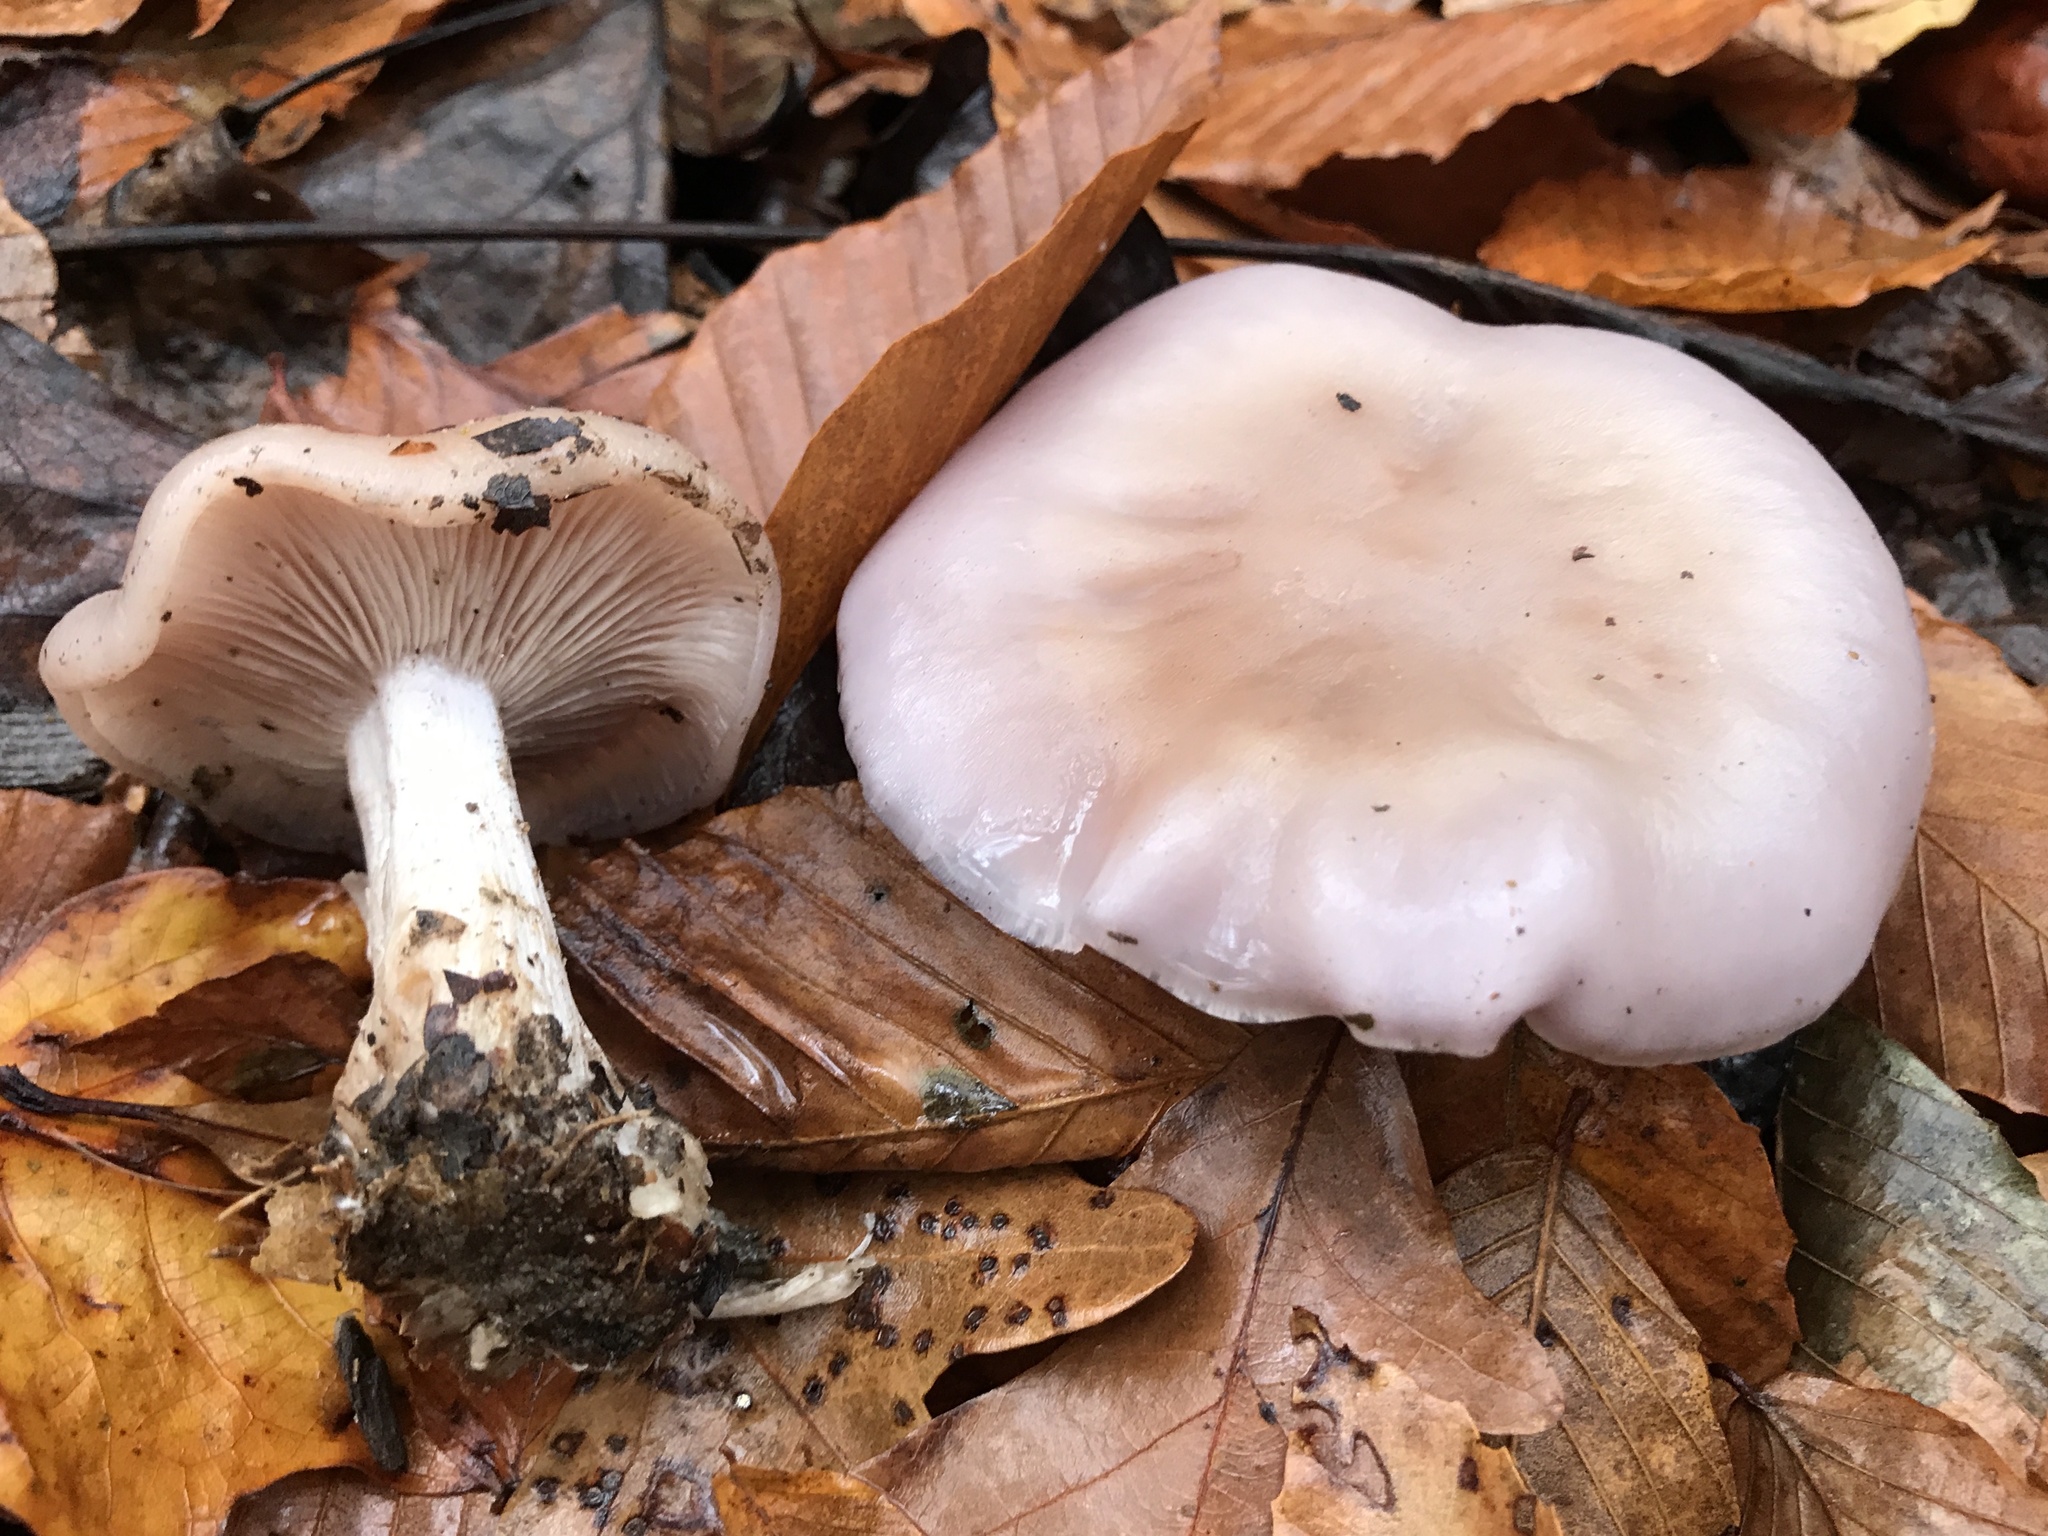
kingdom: Fungi
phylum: Basidiomycota
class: Agaricomycetes
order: Agaricales
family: Tricholomataceae
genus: Collybia
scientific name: Collybia
